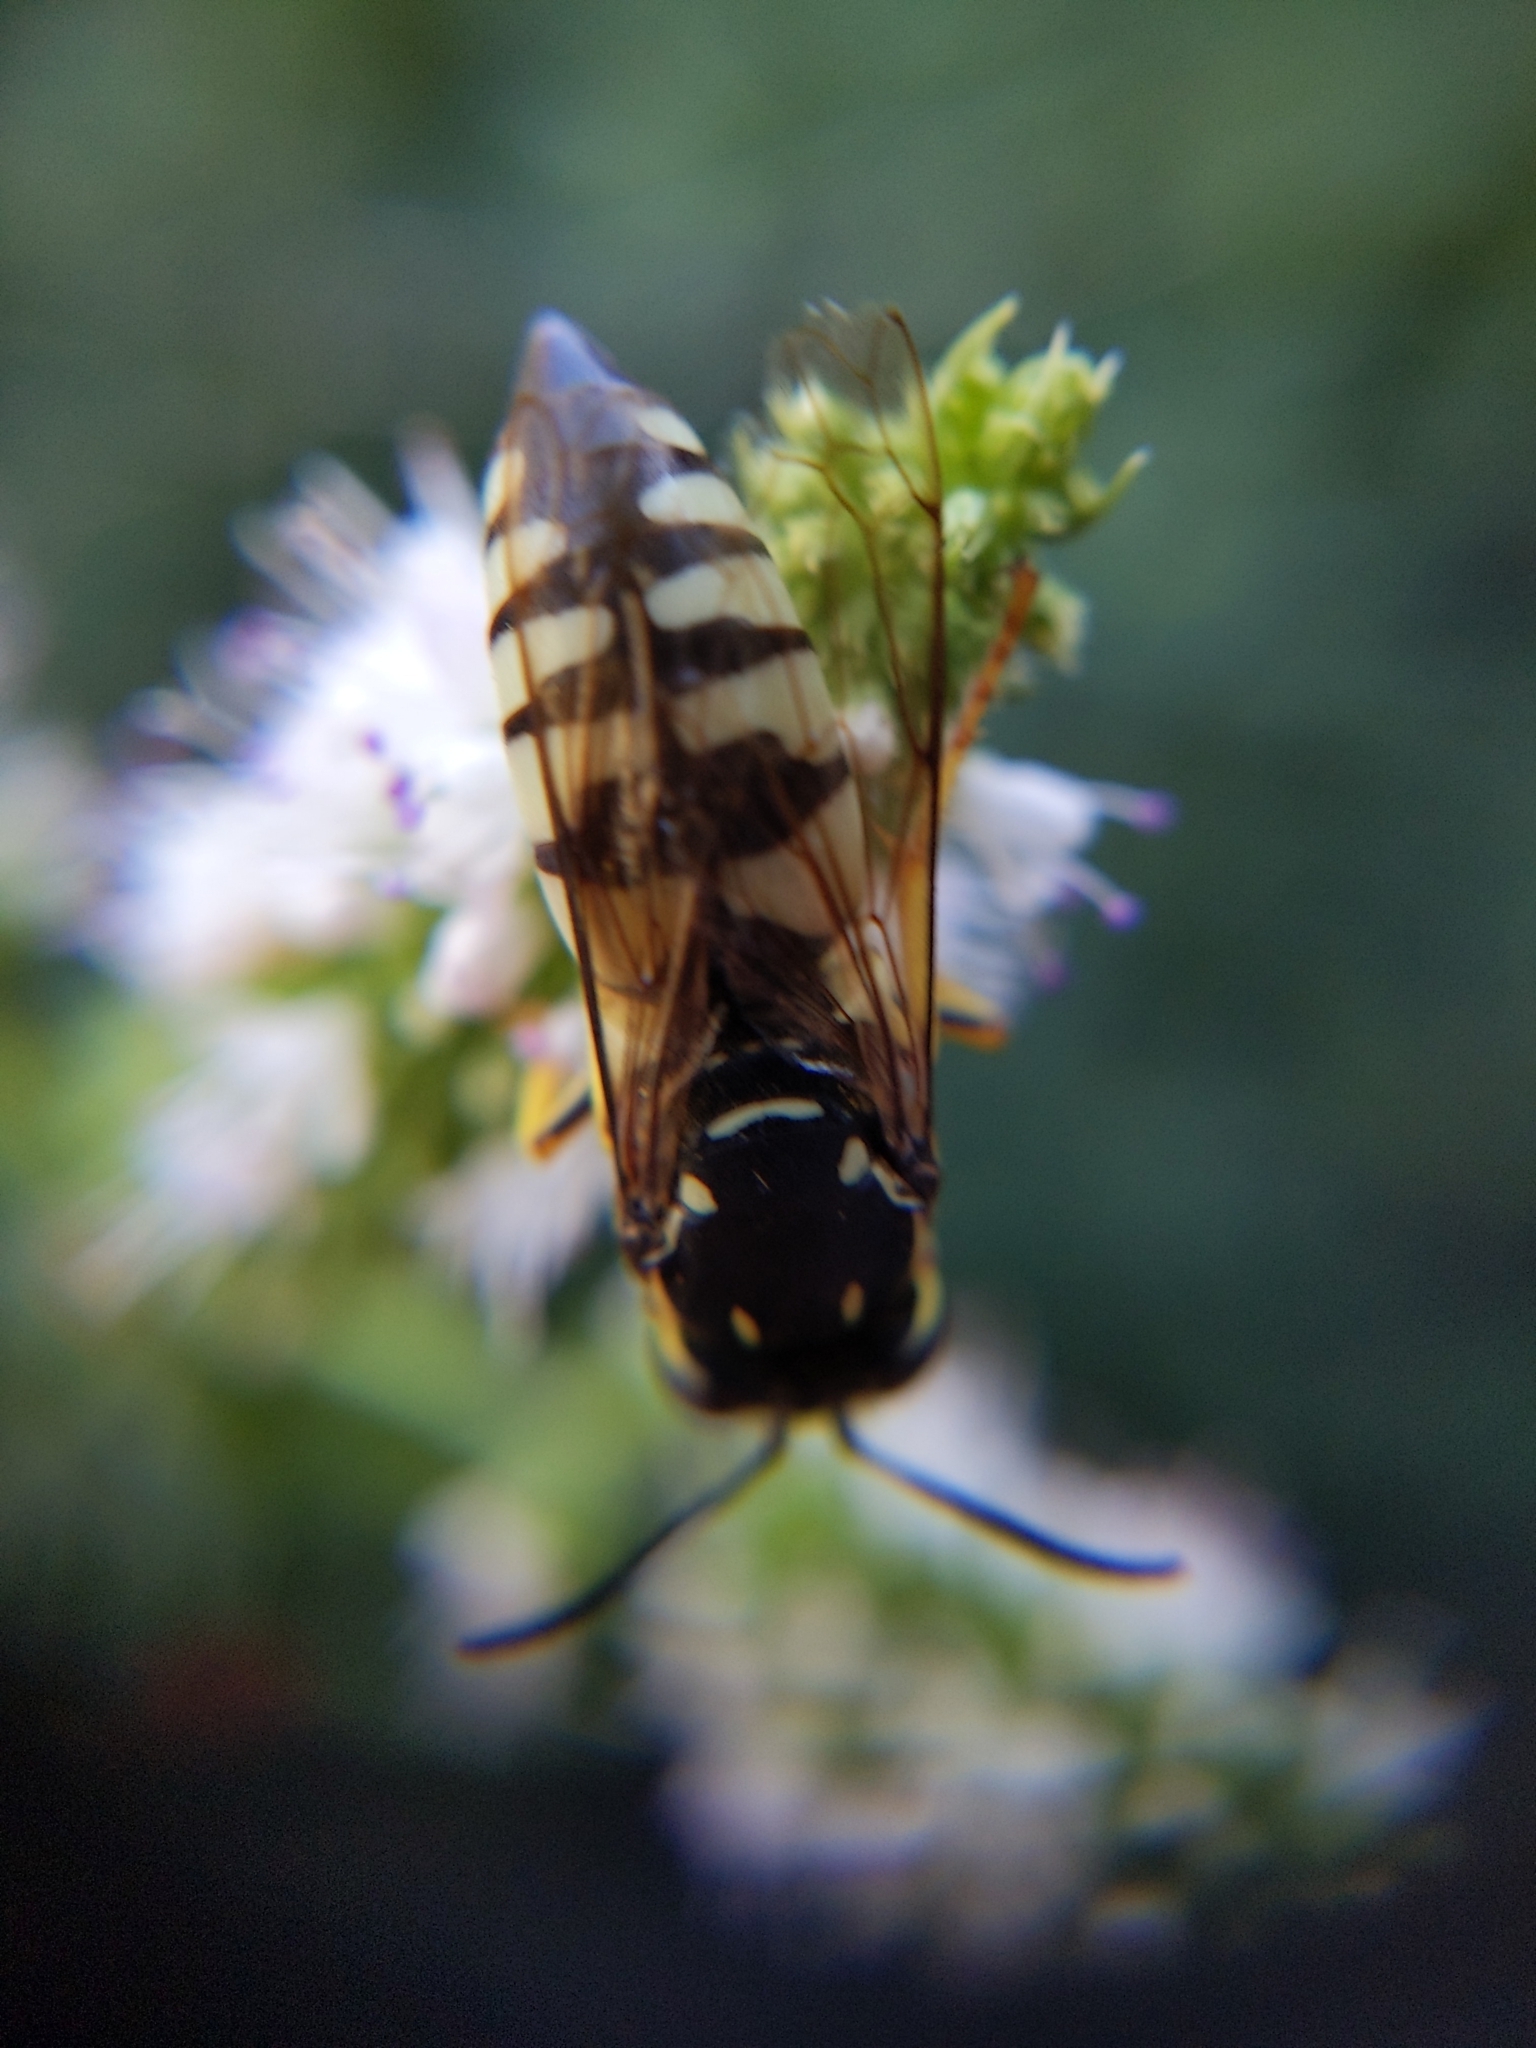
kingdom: Animalia
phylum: Arthropoda
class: Insecta
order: Hymenoptera
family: Crabronidae
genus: Bicyrtes
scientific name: Bicyrtes quadrifasciatus
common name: Four-banded stink bug hunter wasp
